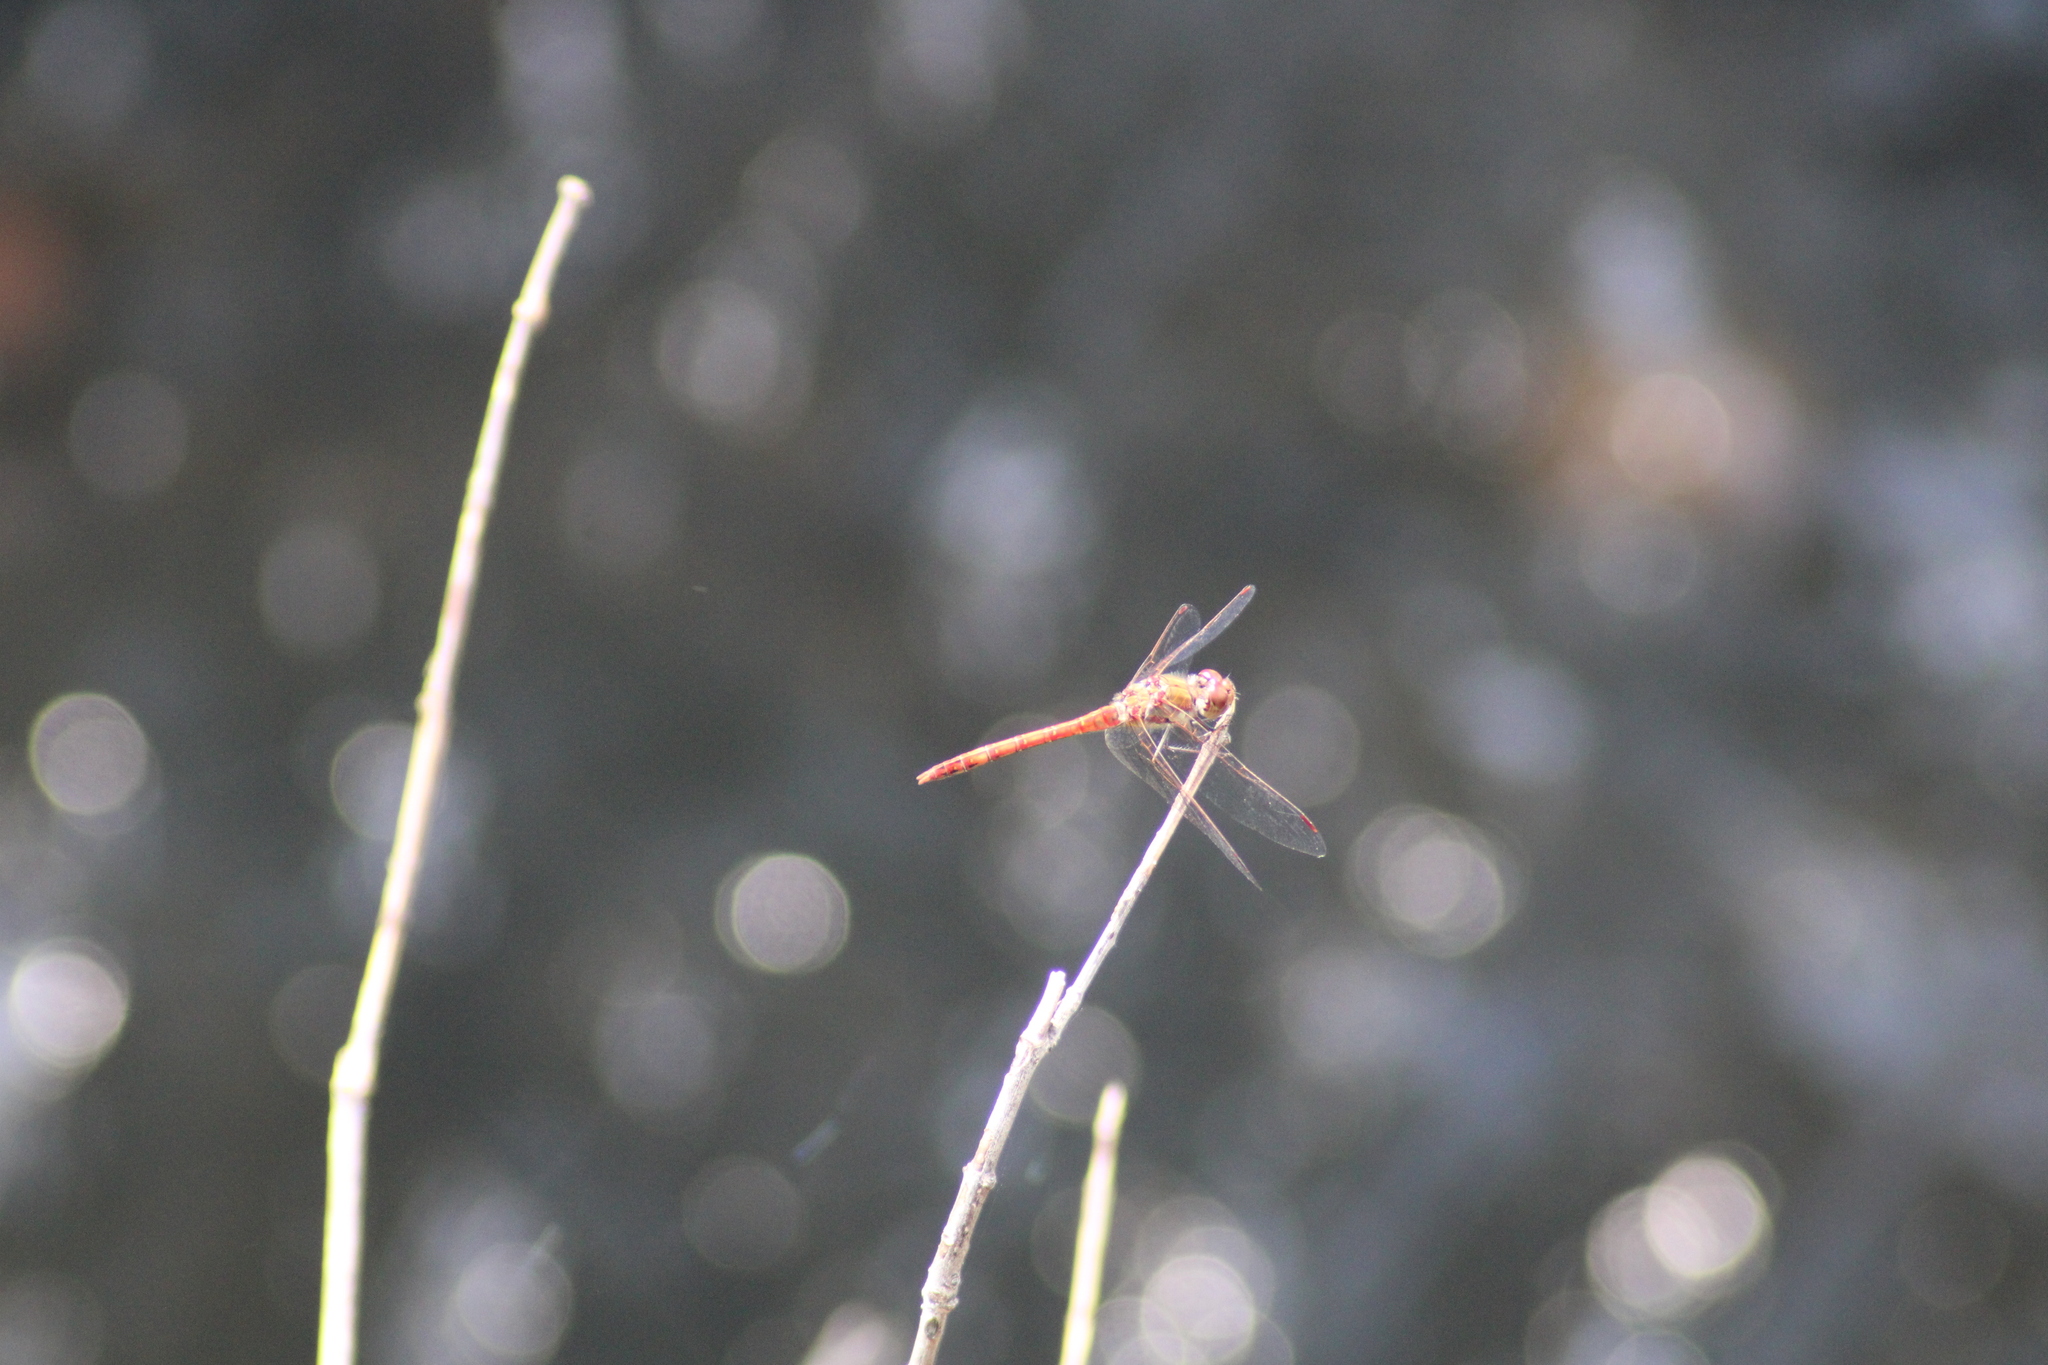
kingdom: Animalia
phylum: Arthropoda
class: Insecta
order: Odonata
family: Libellulidae
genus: Sympetrum
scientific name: Sympetrum striolatum
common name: Common darter
